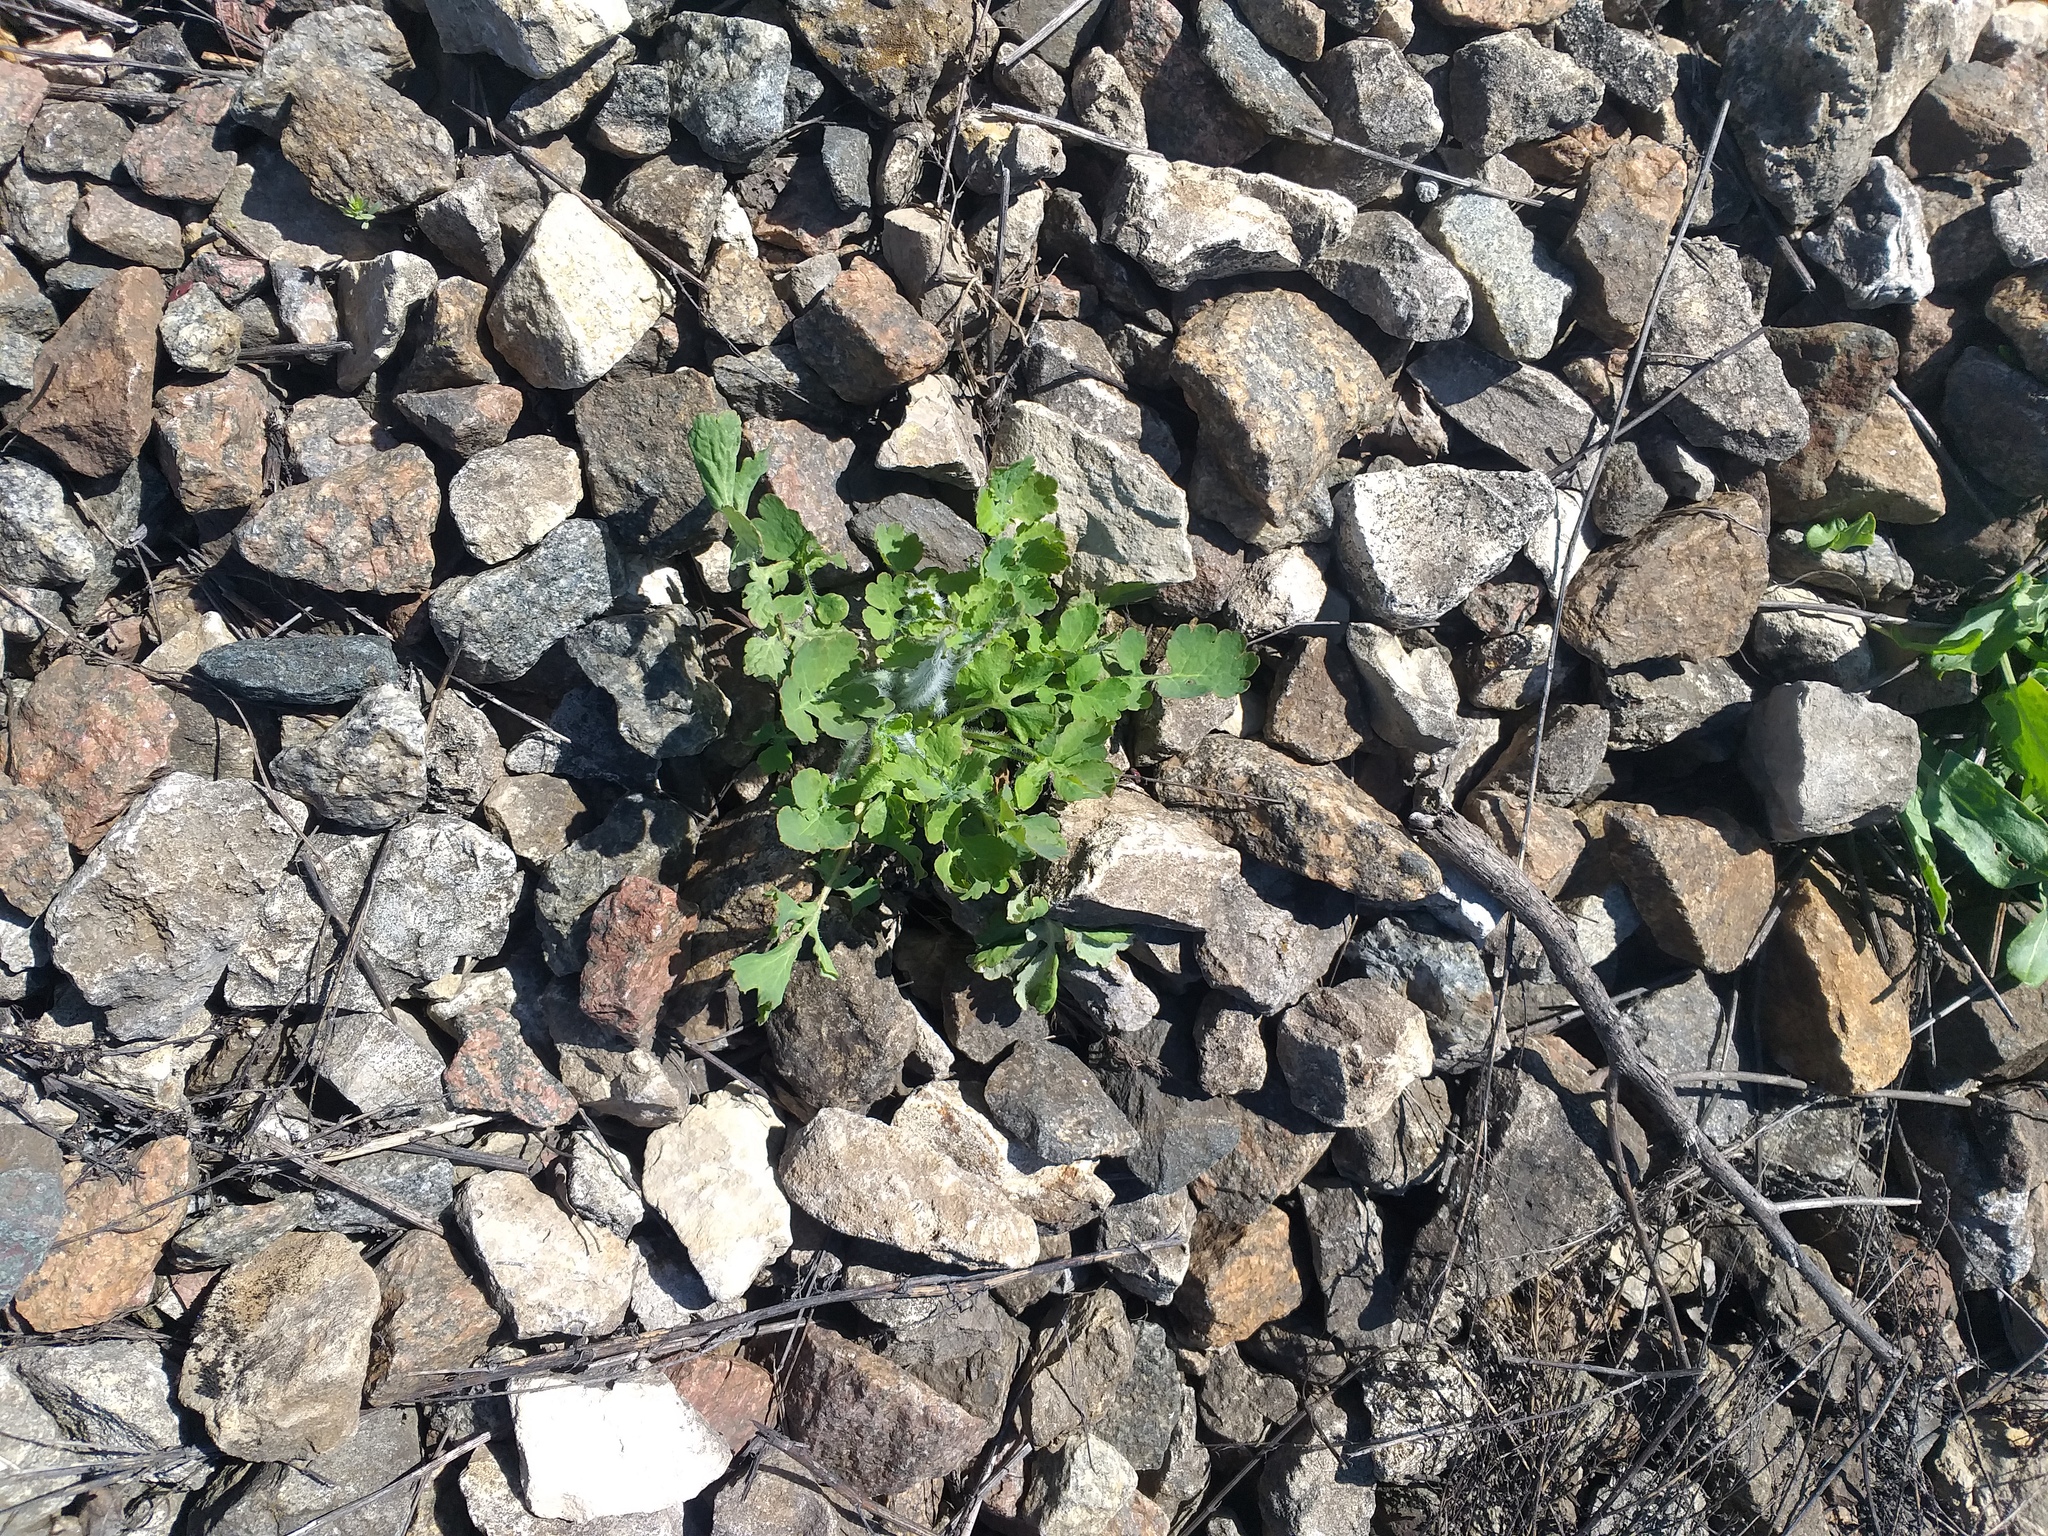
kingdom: Plantae
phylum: Tracheophyta
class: Magnoliopsida
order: Ranunculales
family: Papaveraceae
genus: Chelidonium
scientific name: Chelidonium majus
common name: Greater celandine
